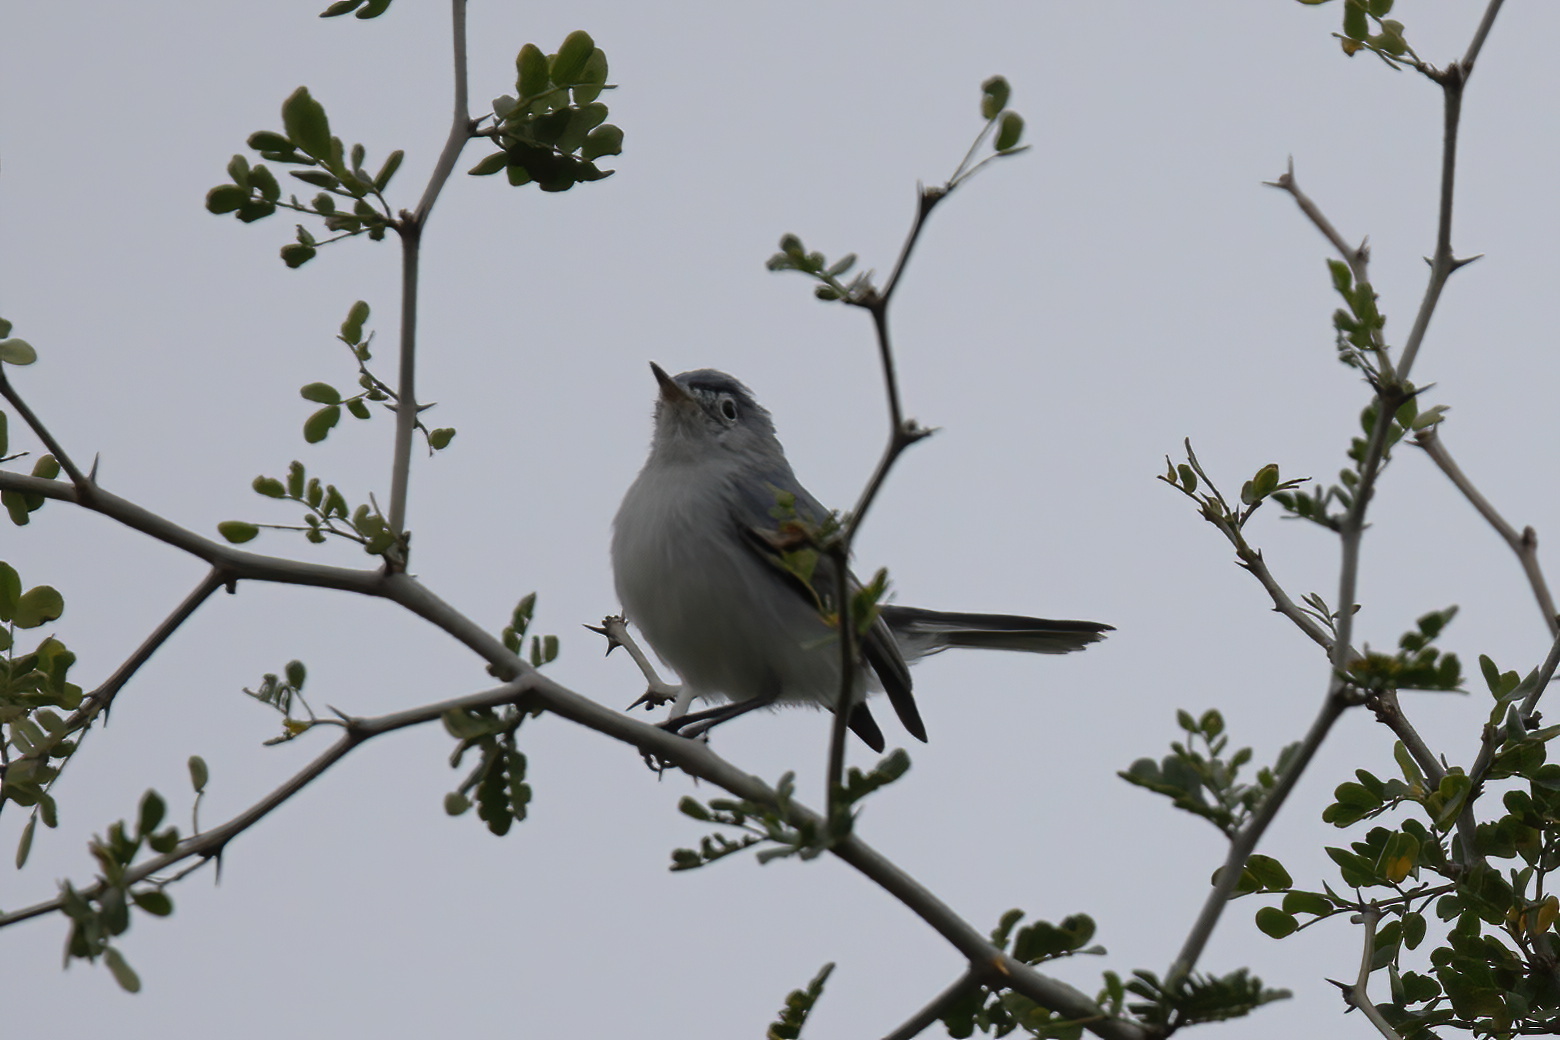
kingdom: Animalia
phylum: Chordata
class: Aves
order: Passeriformes
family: Polioptilidae
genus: Polioptila
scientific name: Polioptila caerulea
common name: Blue-gray gnatcatcher
